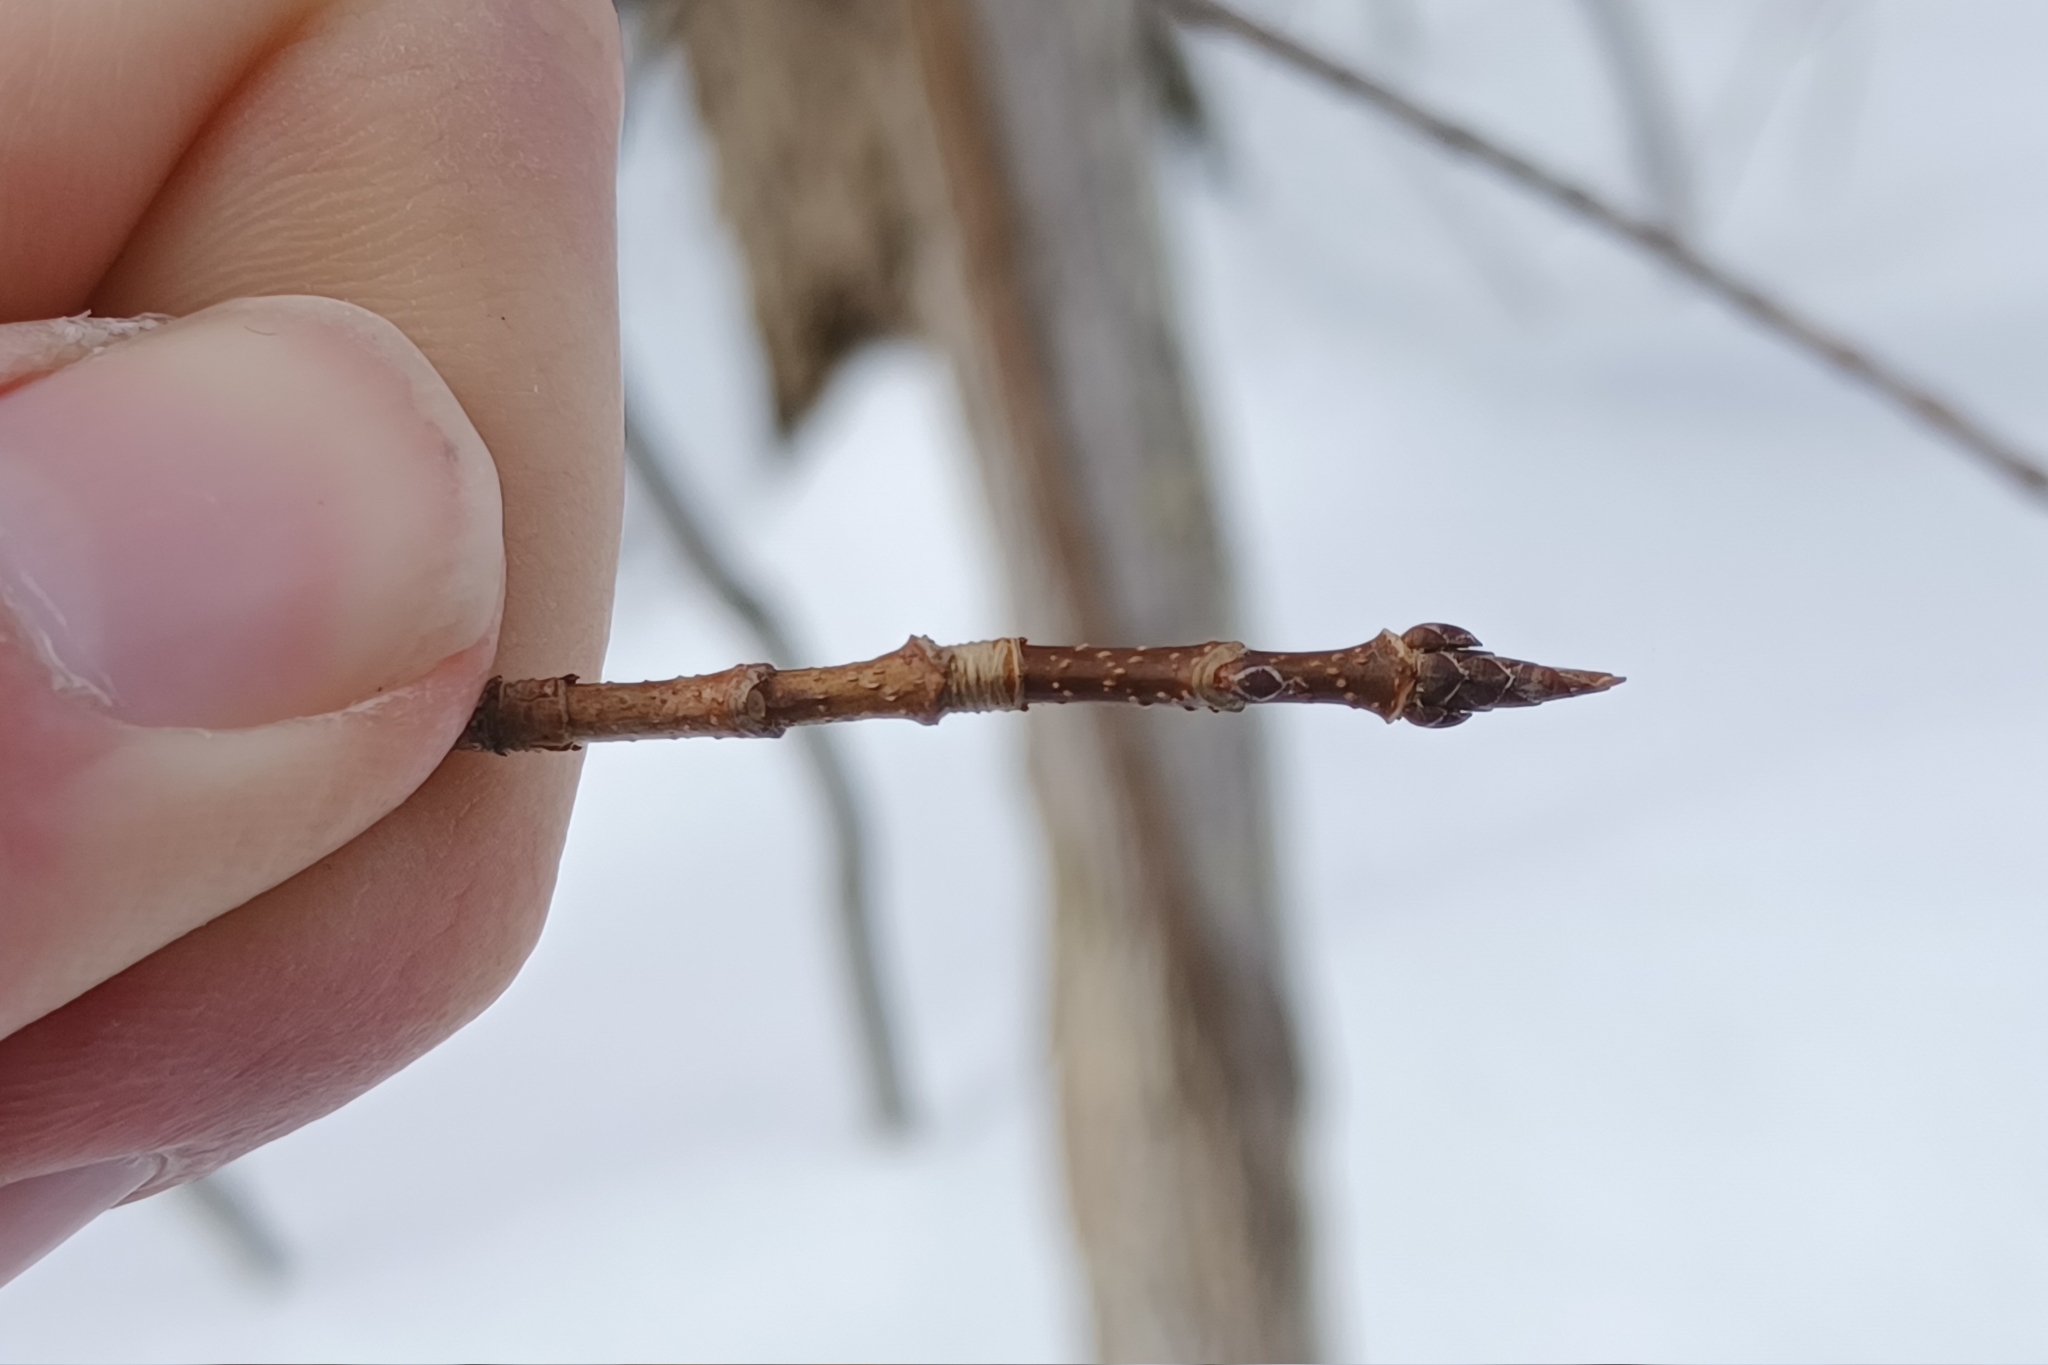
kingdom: Plantae
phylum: Tracheophyta
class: Magnoliopsida
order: Sapindales
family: Sapindaceae
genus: Acer
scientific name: Acer saccharum
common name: Sugar maple
